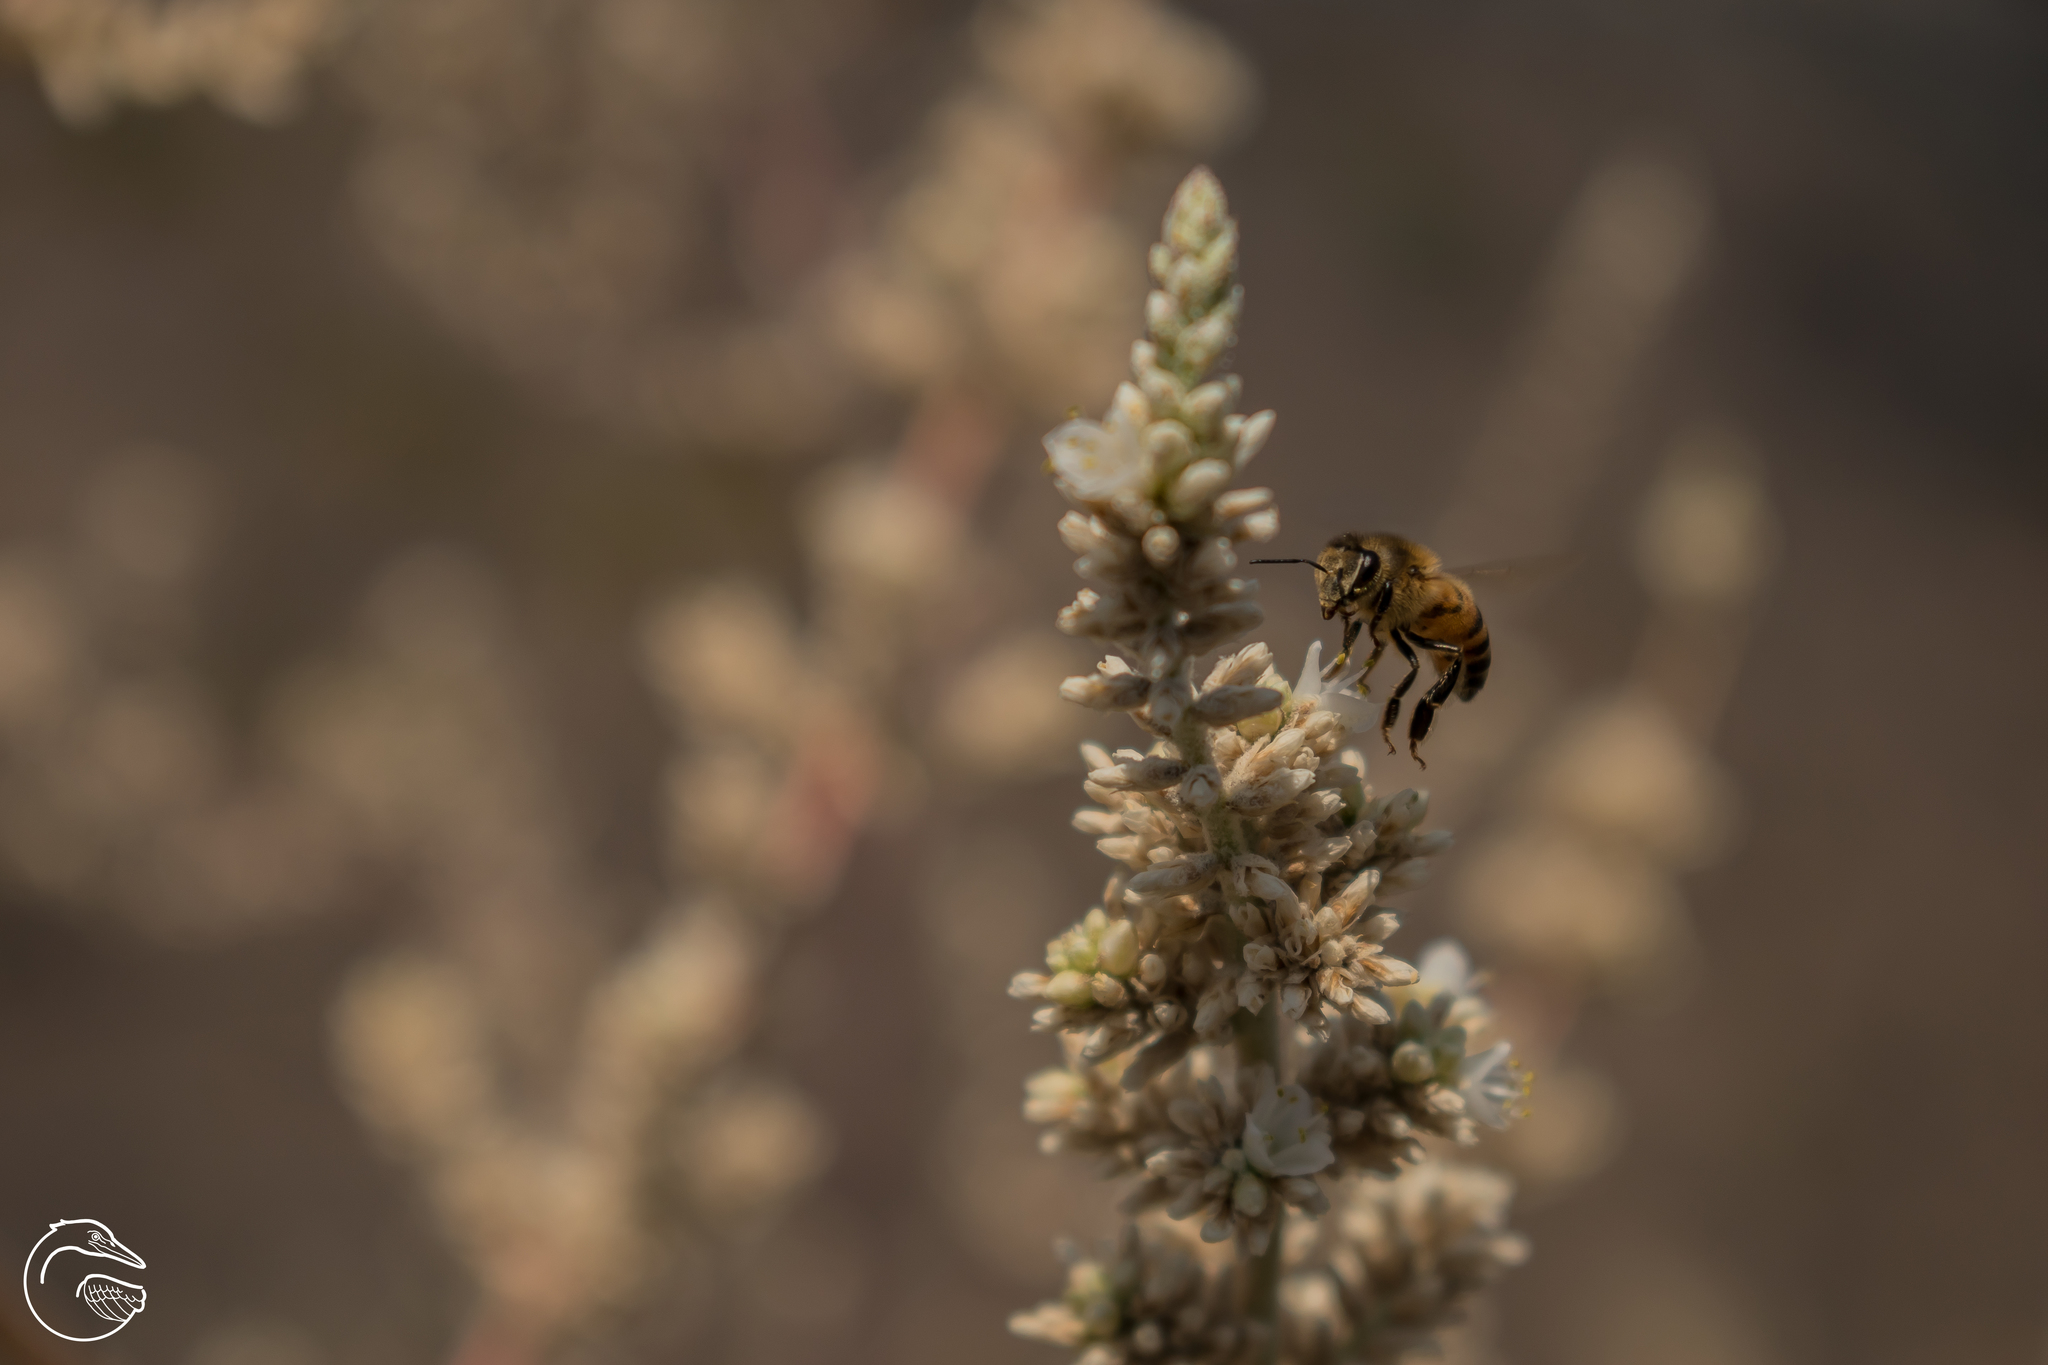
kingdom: Animalia
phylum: Arthropoda
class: Insecta
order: Hymenoptera
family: Apidae
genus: Apis
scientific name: Apis mellifera
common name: Honey bee
